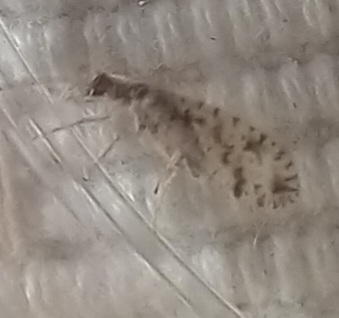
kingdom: Animalia
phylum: Arthropoda
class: Insecta
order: Neuroptera
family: Hemerobiidae
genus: Micromus
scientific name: Micromus variegatus
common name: Brown lacewing
